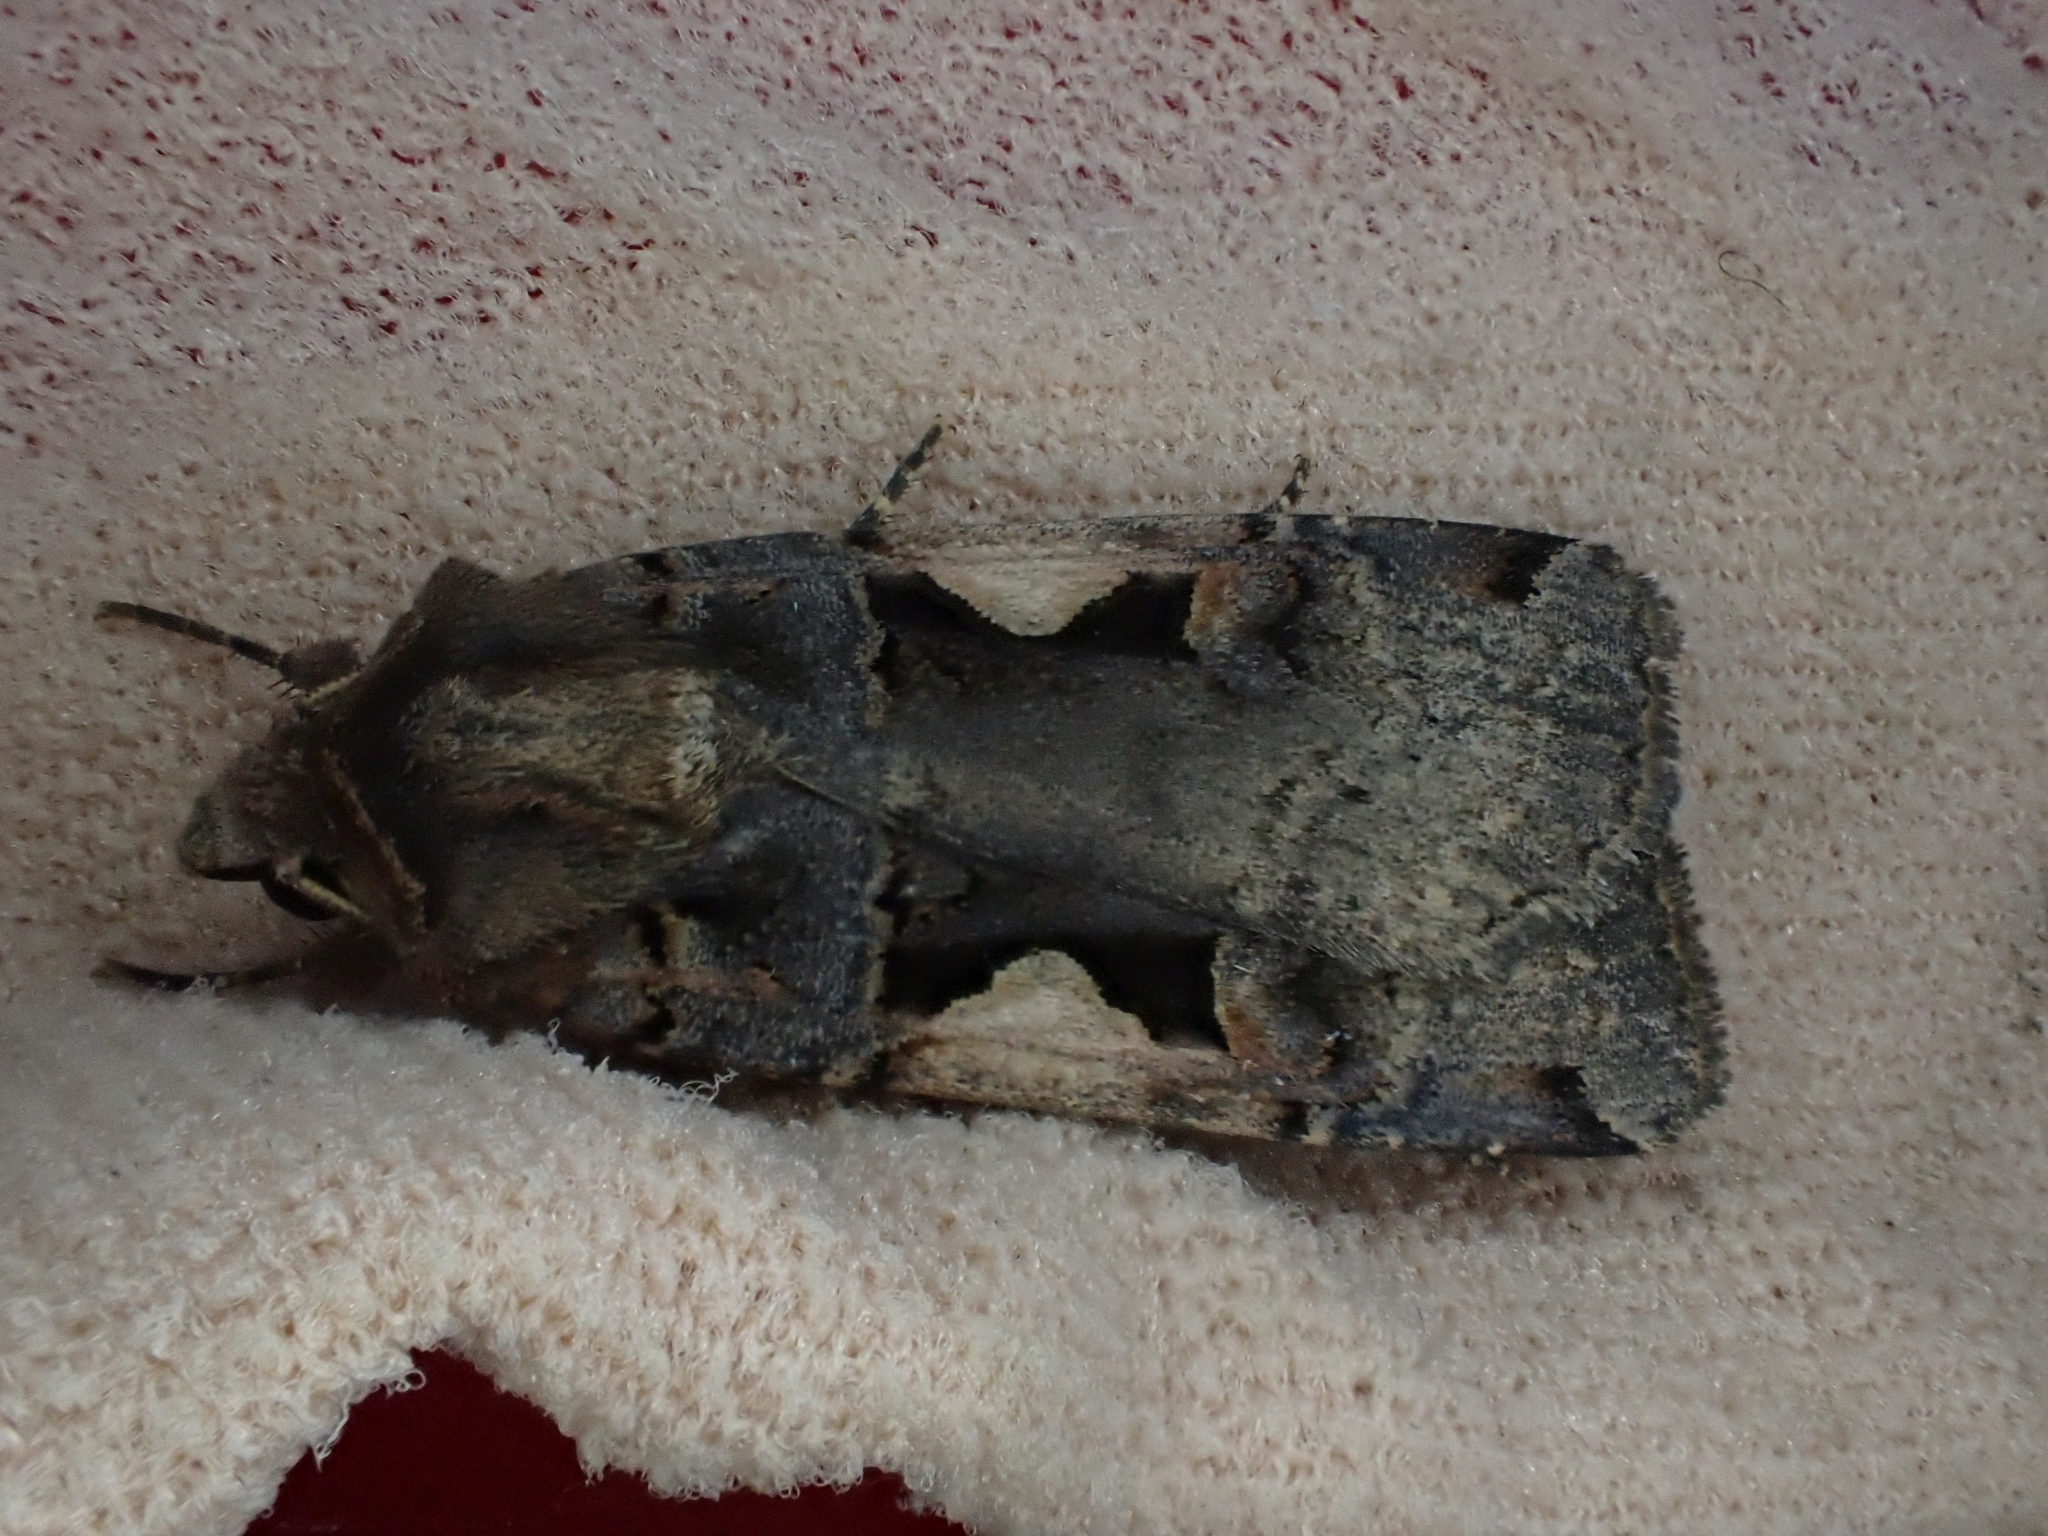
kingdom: Animalia
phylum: Arthropoda
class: Insecta
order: Lepidoptera
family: Noctuidae
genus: Xestia
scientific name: Xestia c-nigrum
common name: Setaceous hebrew character
